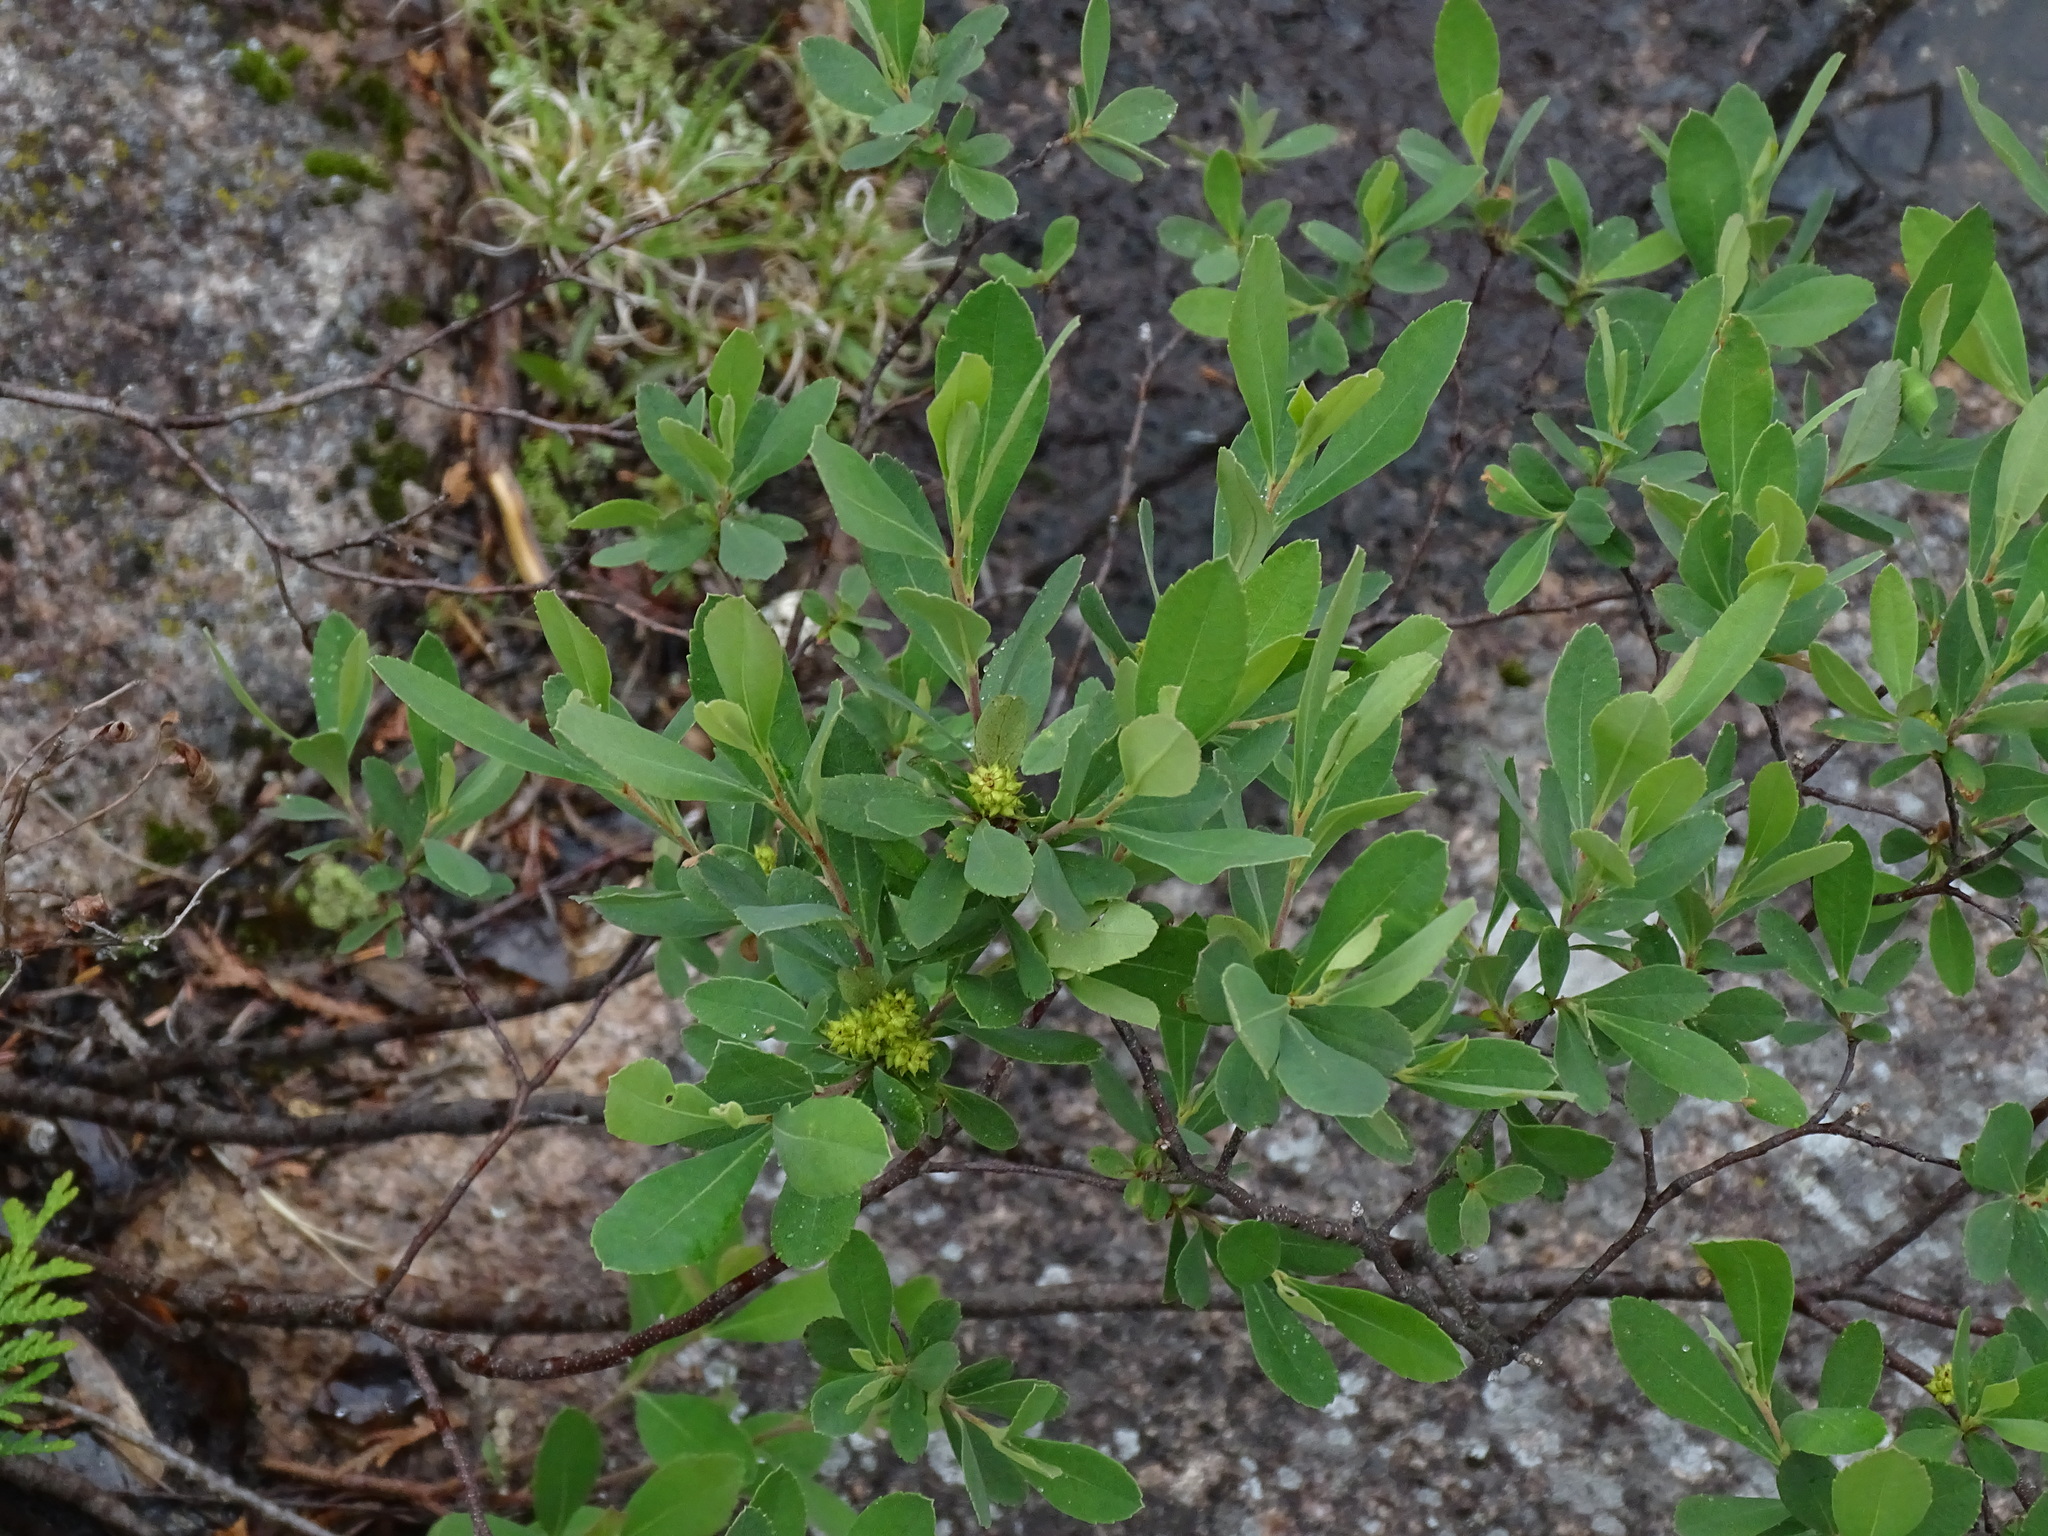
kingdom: Plantae
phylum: Tracheophyta
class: Magnoliopsida
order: Fagales
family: Myricaceae
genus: Myrica
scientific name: Myrica gale
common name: Sweet gale
